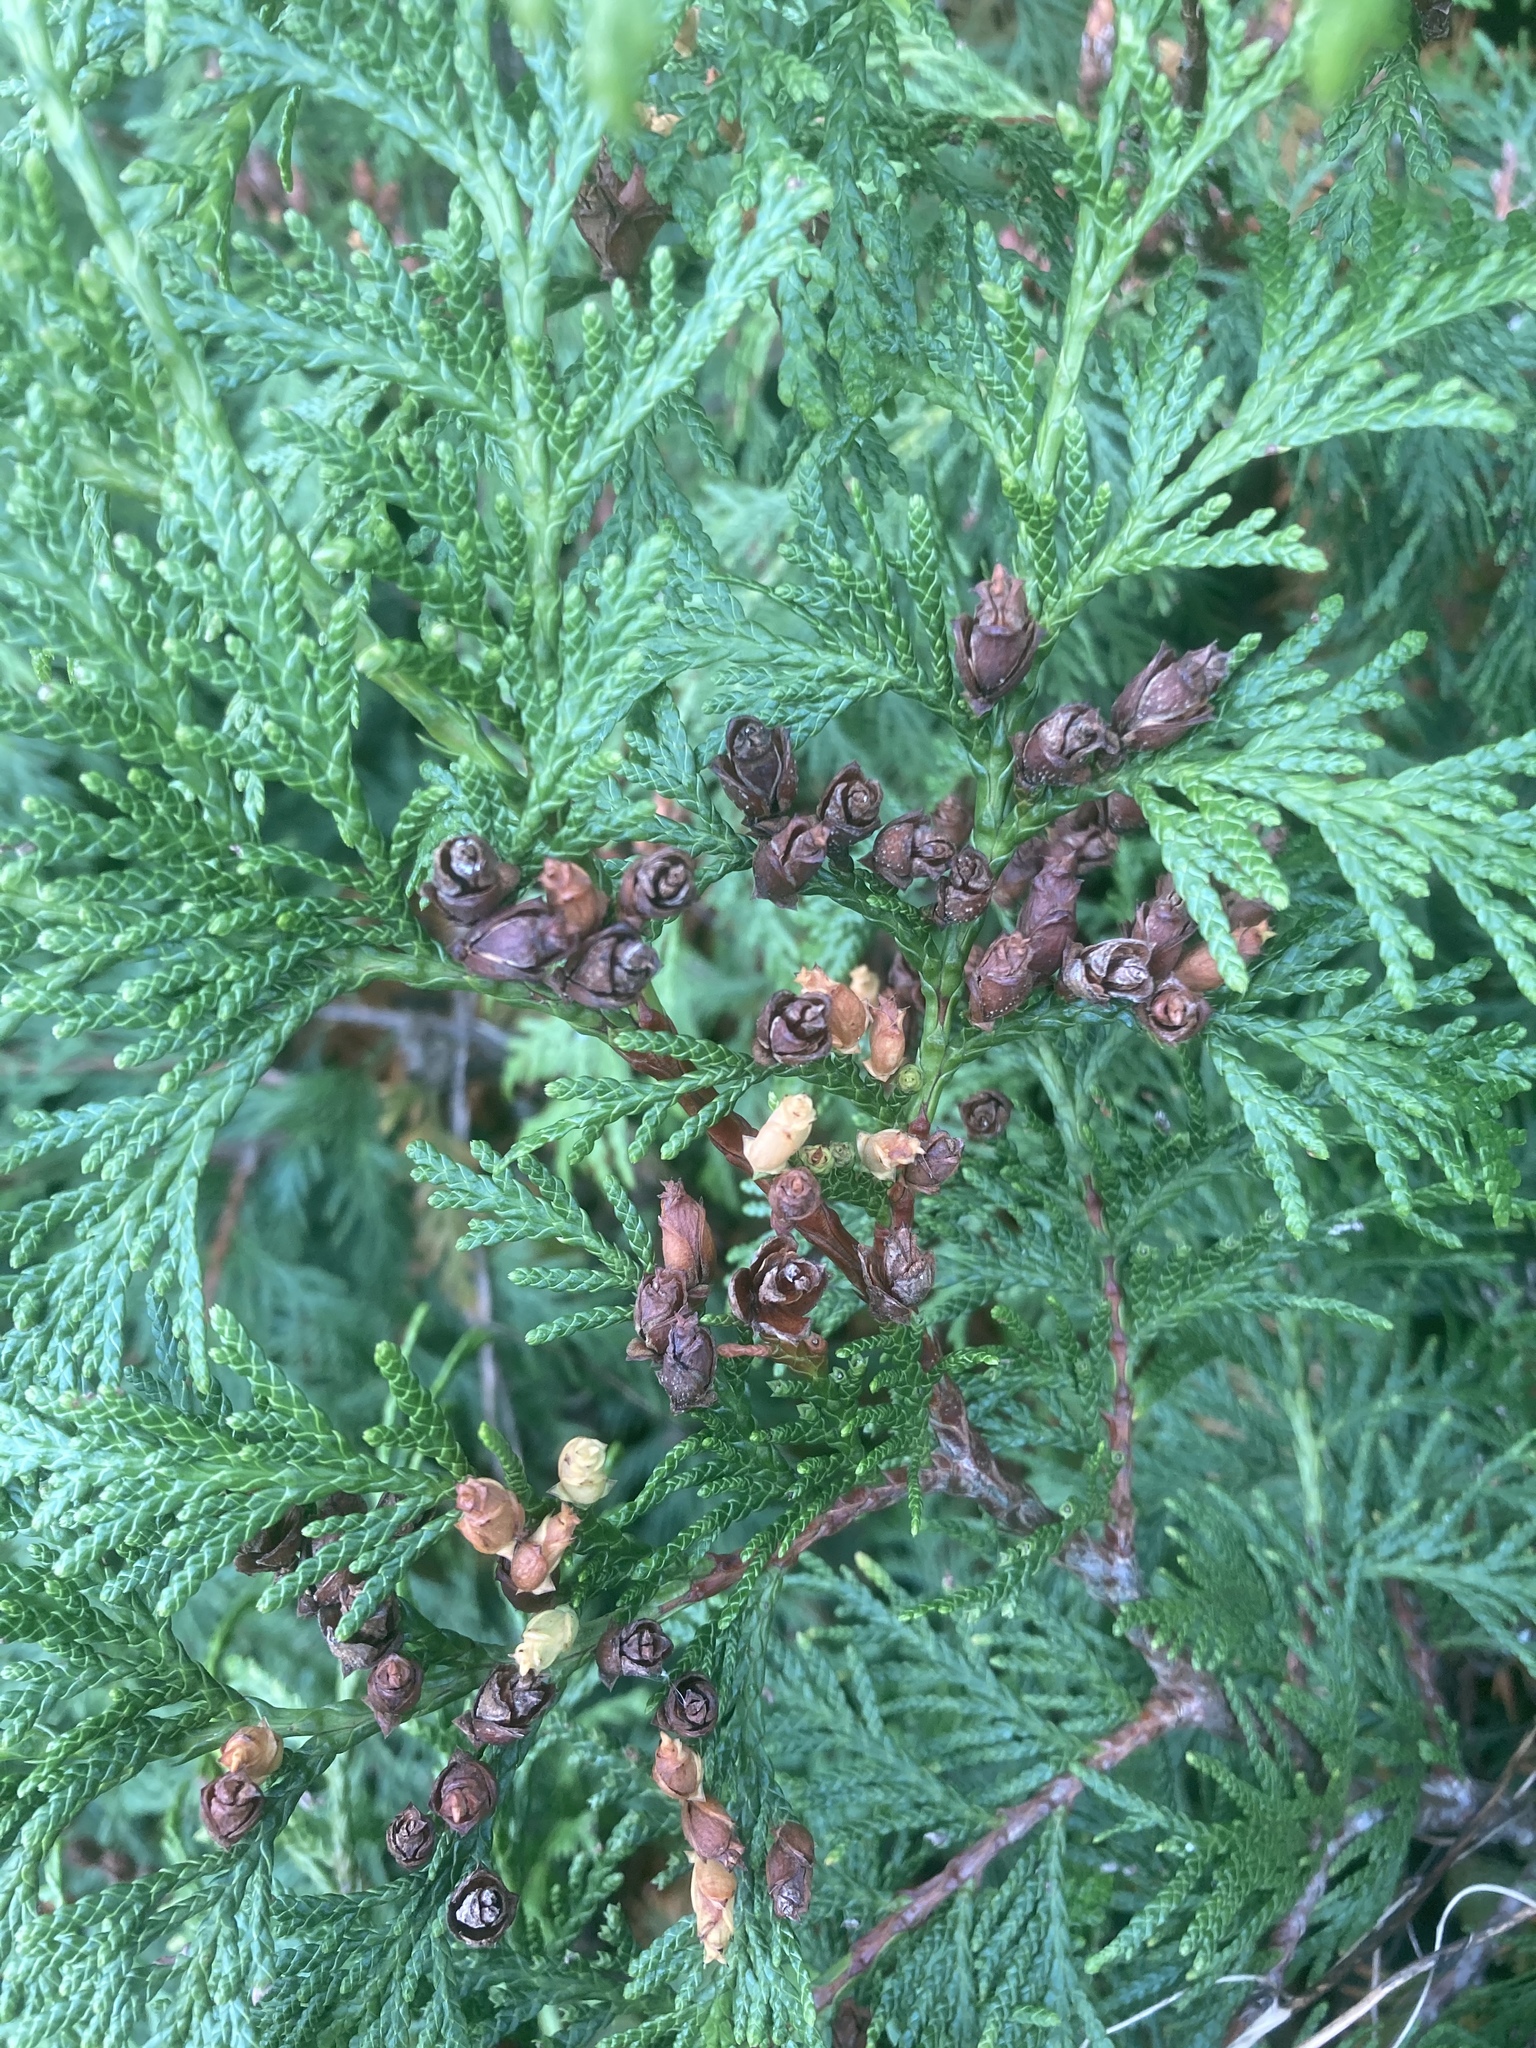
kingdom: Plantae
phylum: Tracheophyta
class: Pinopsida
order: Pinales
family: Cupressaceae
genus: Thuja
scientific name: Thuja occidentalis
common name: Northern white-cedar
